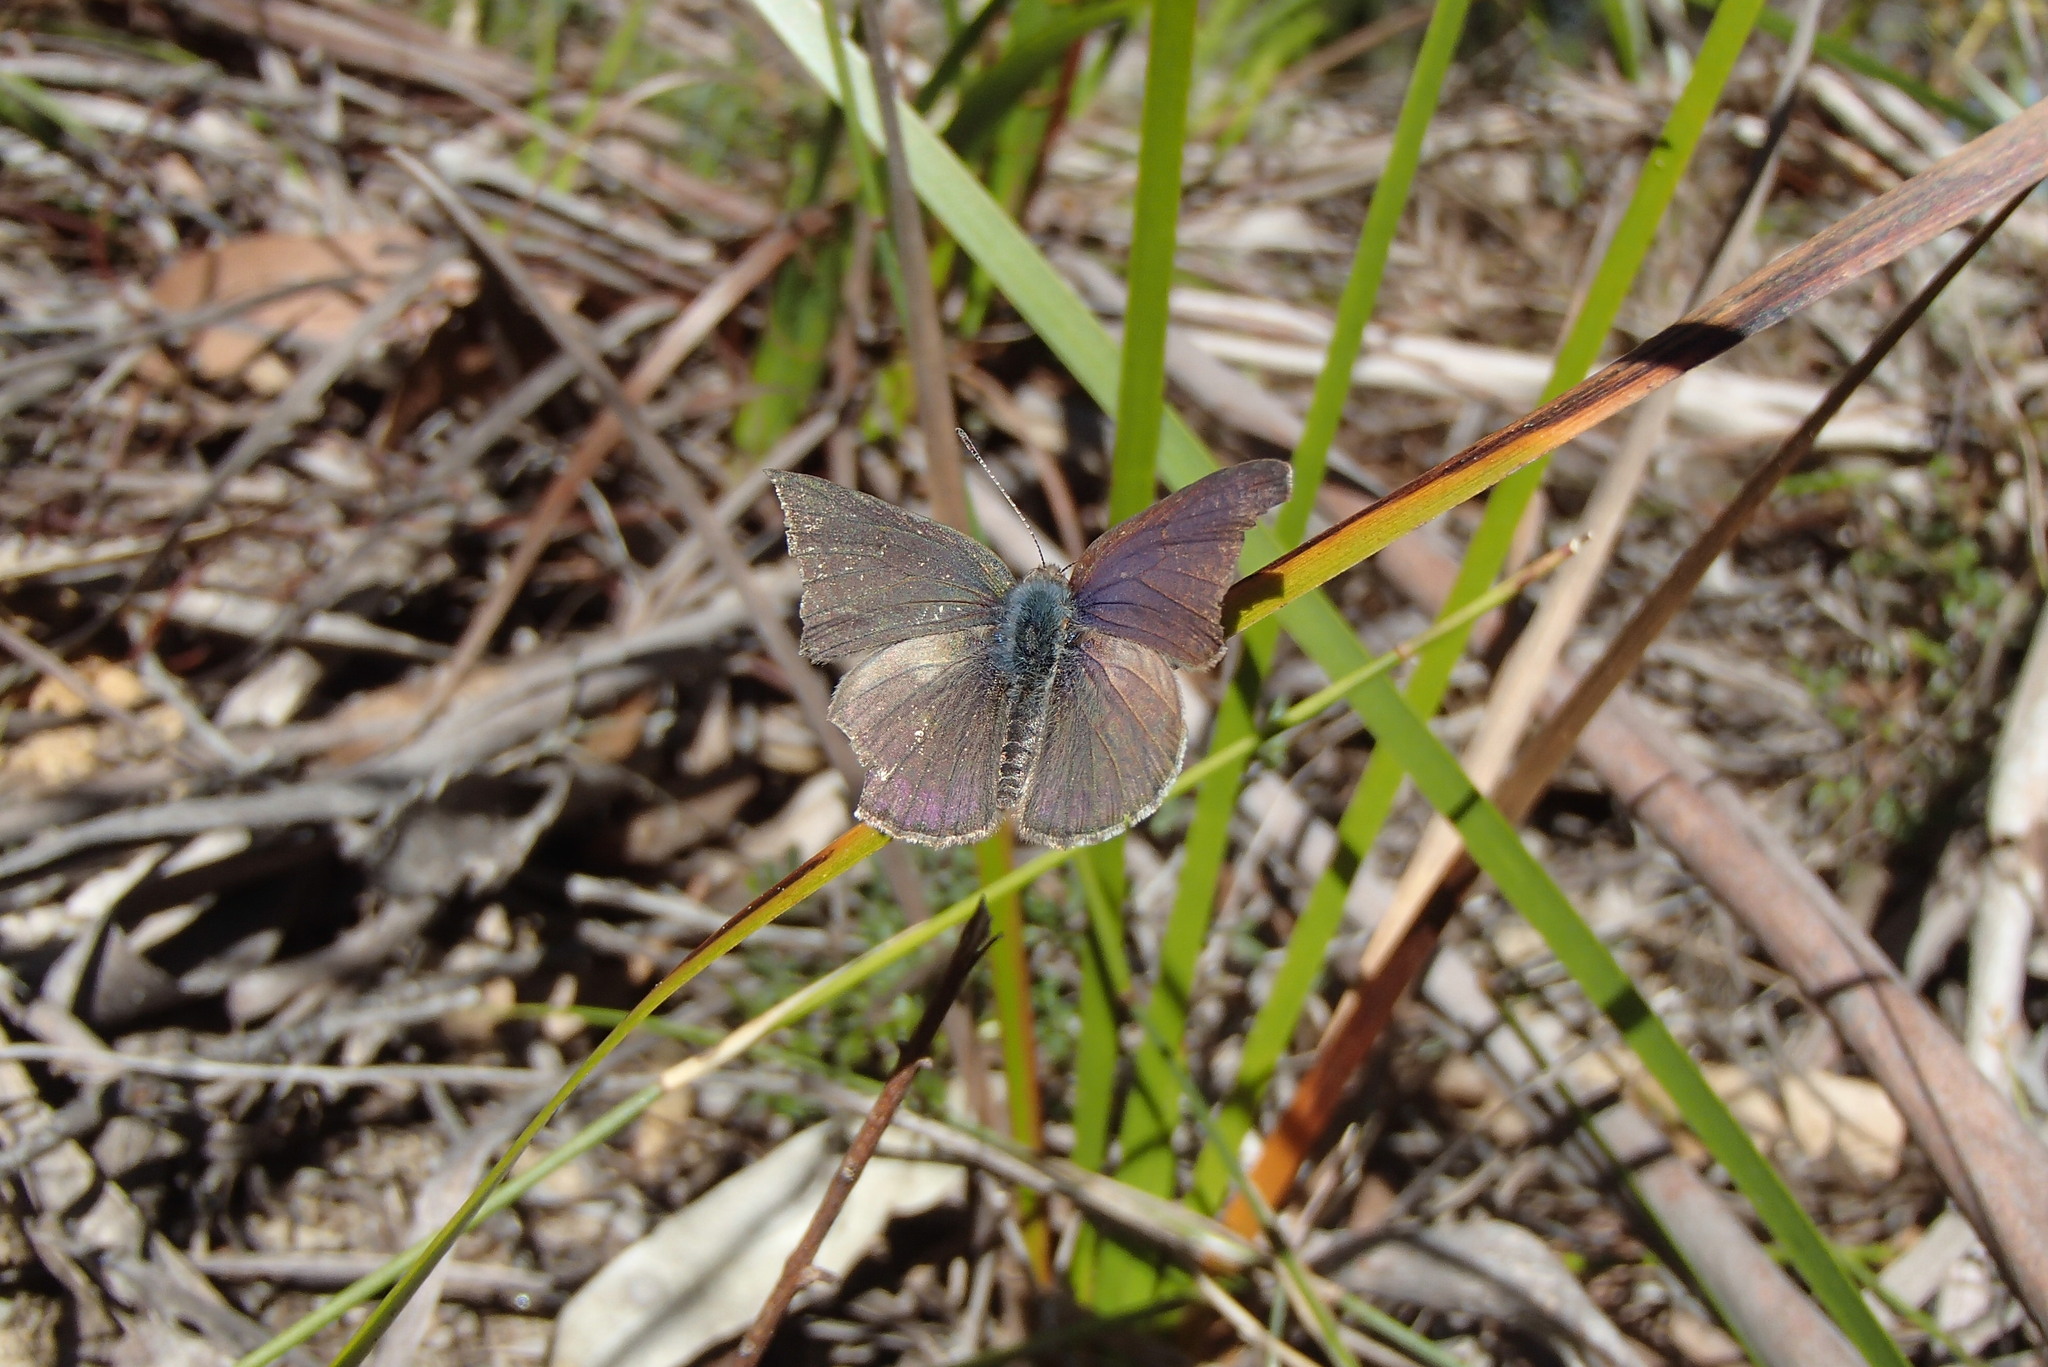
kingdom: Animalia
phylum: Arthropoda
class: Insecta
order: Lepidoptera
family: Lycaenidae
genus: Candalides
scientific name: Candalides
